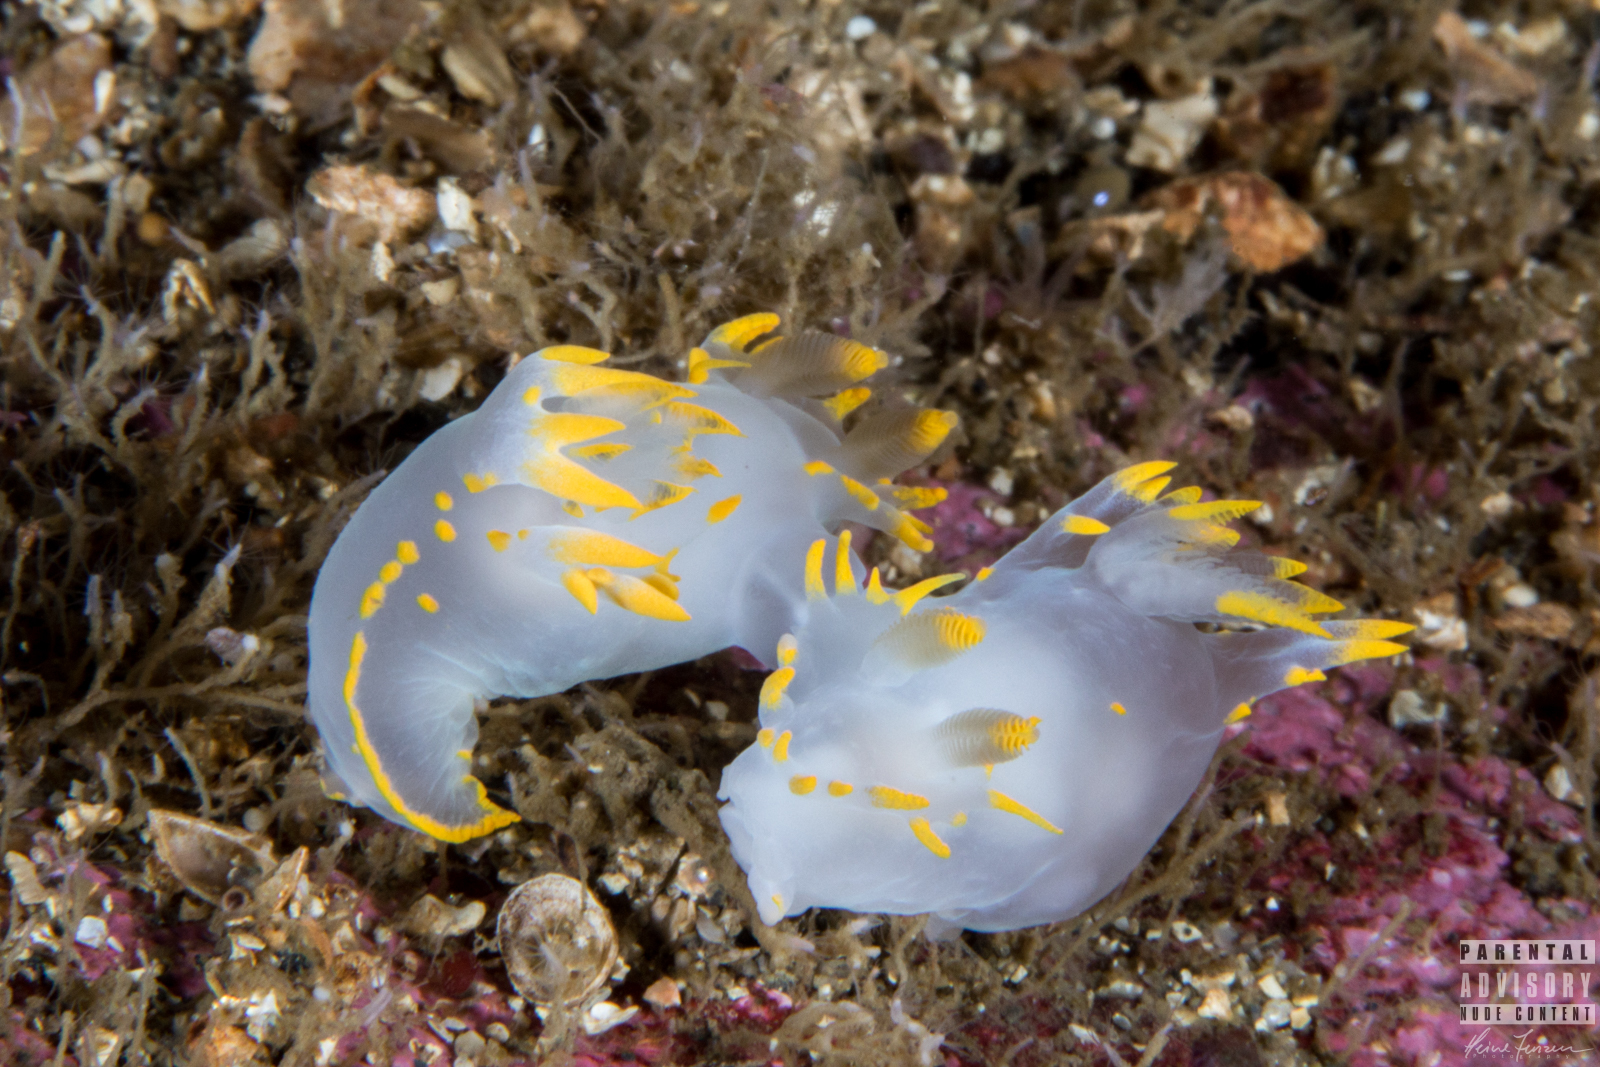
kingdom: Animalia
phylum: Mollusca
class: Gastropoda
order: Nudibranchia
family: Polyceridae
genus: Polycera
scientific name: Polycera faeroensis
